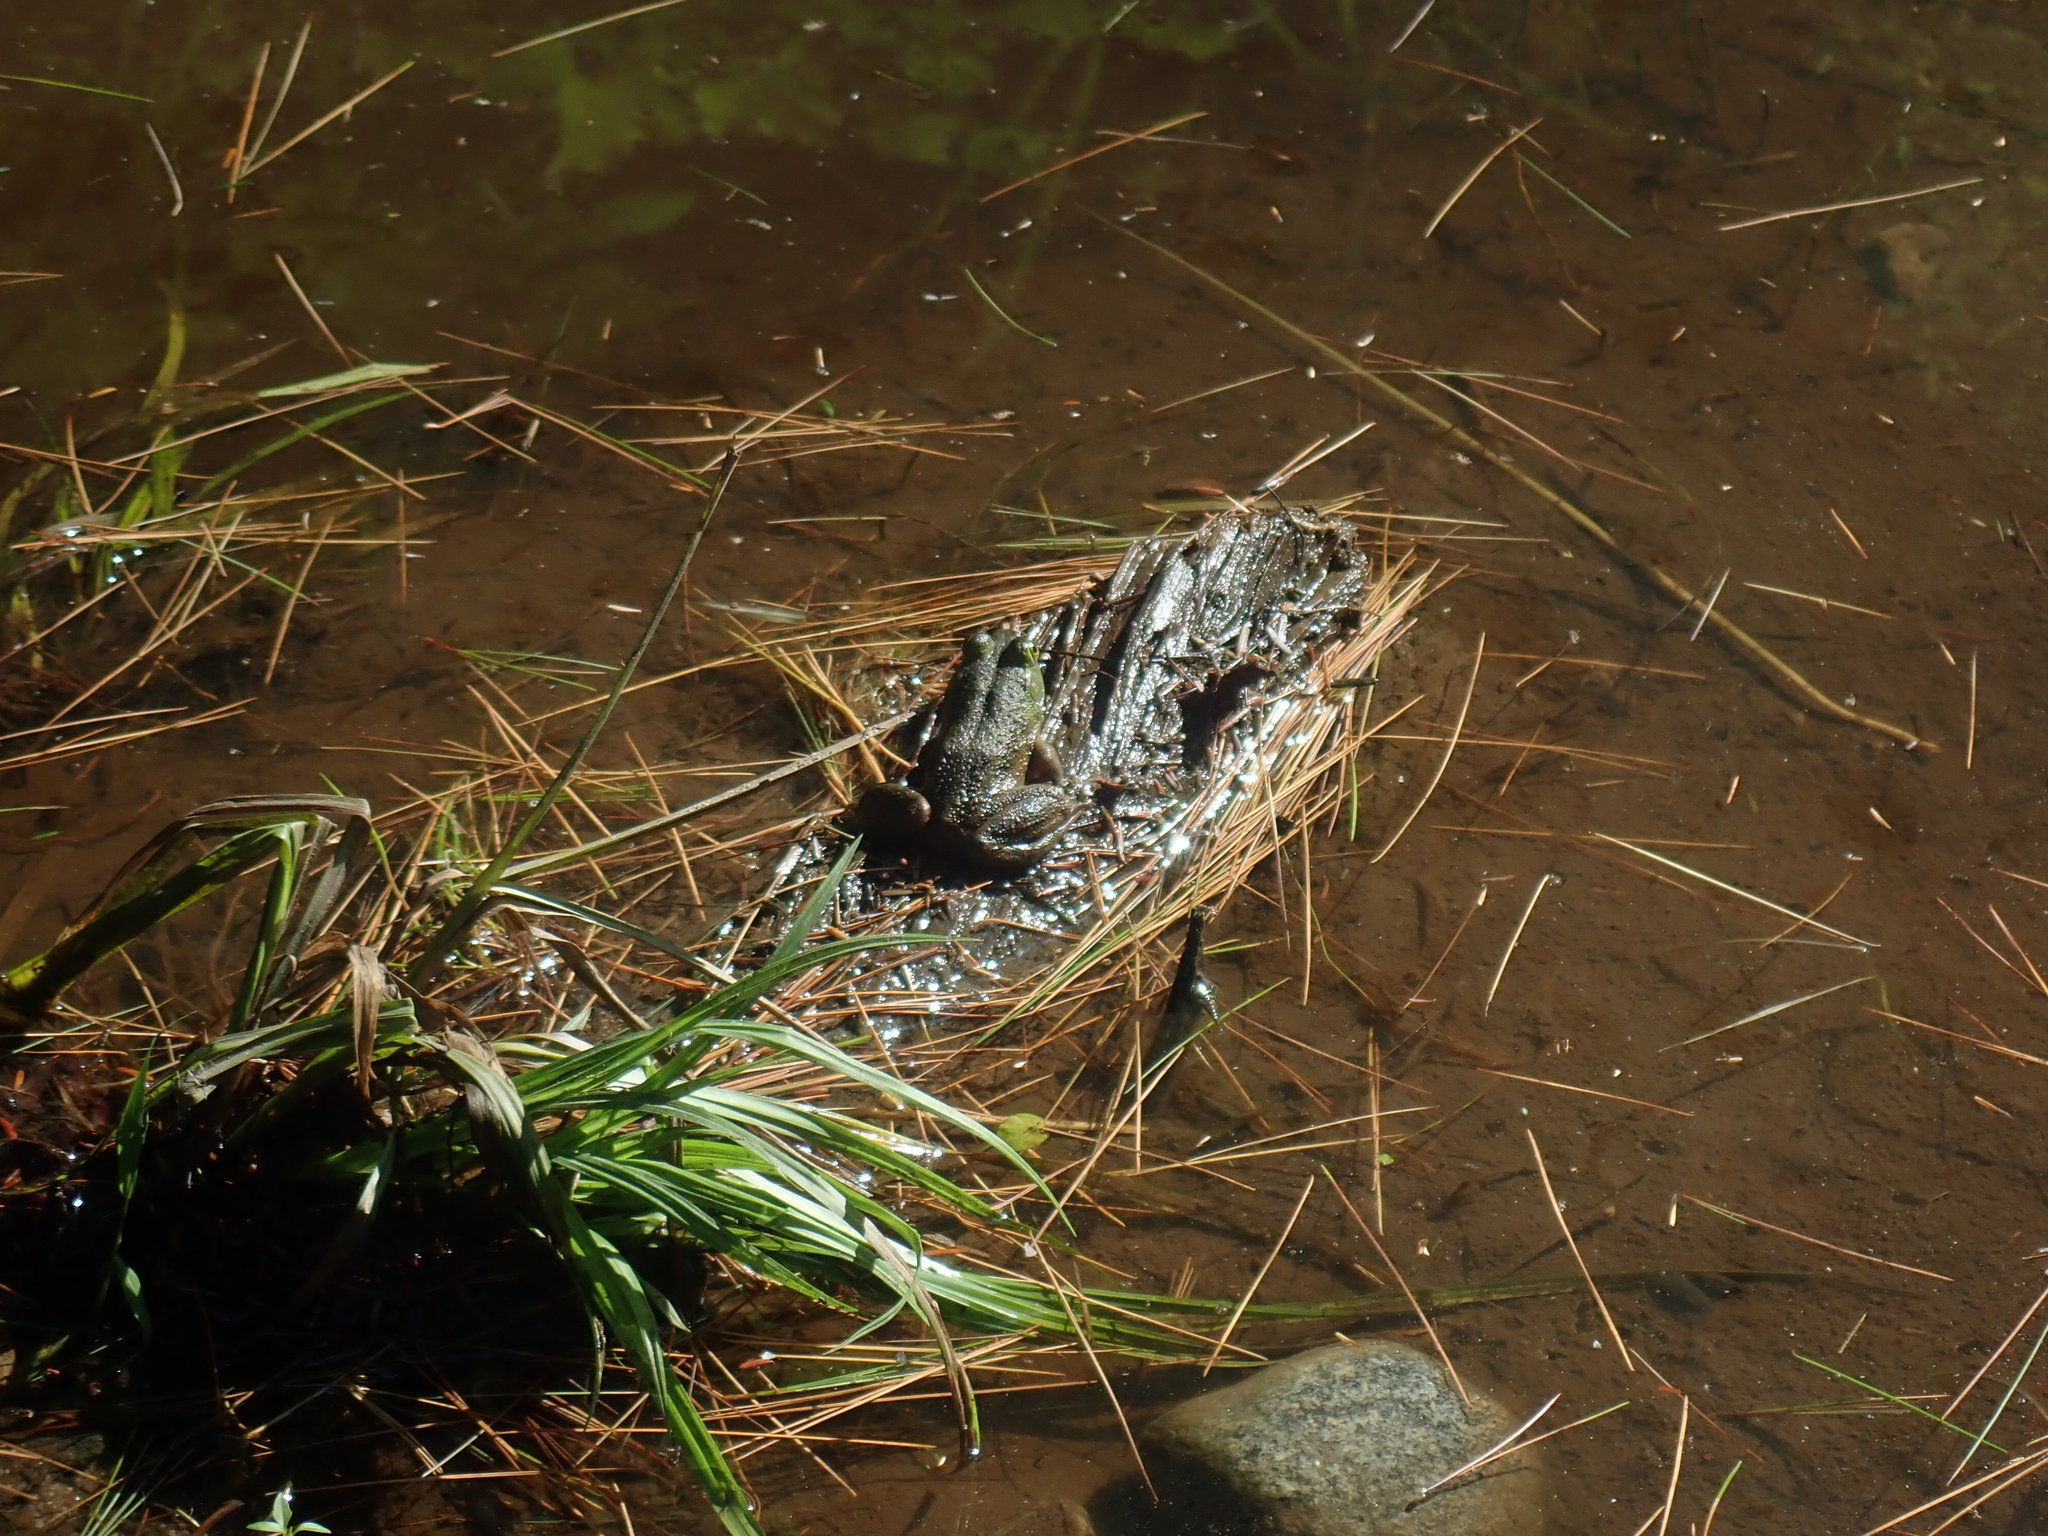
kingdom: Animalia
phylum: Chordata
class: Amphibia
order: Anura
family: Ranidae
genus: Lithobates
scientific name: Lithobates catesbeianus
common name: American bullfrog
